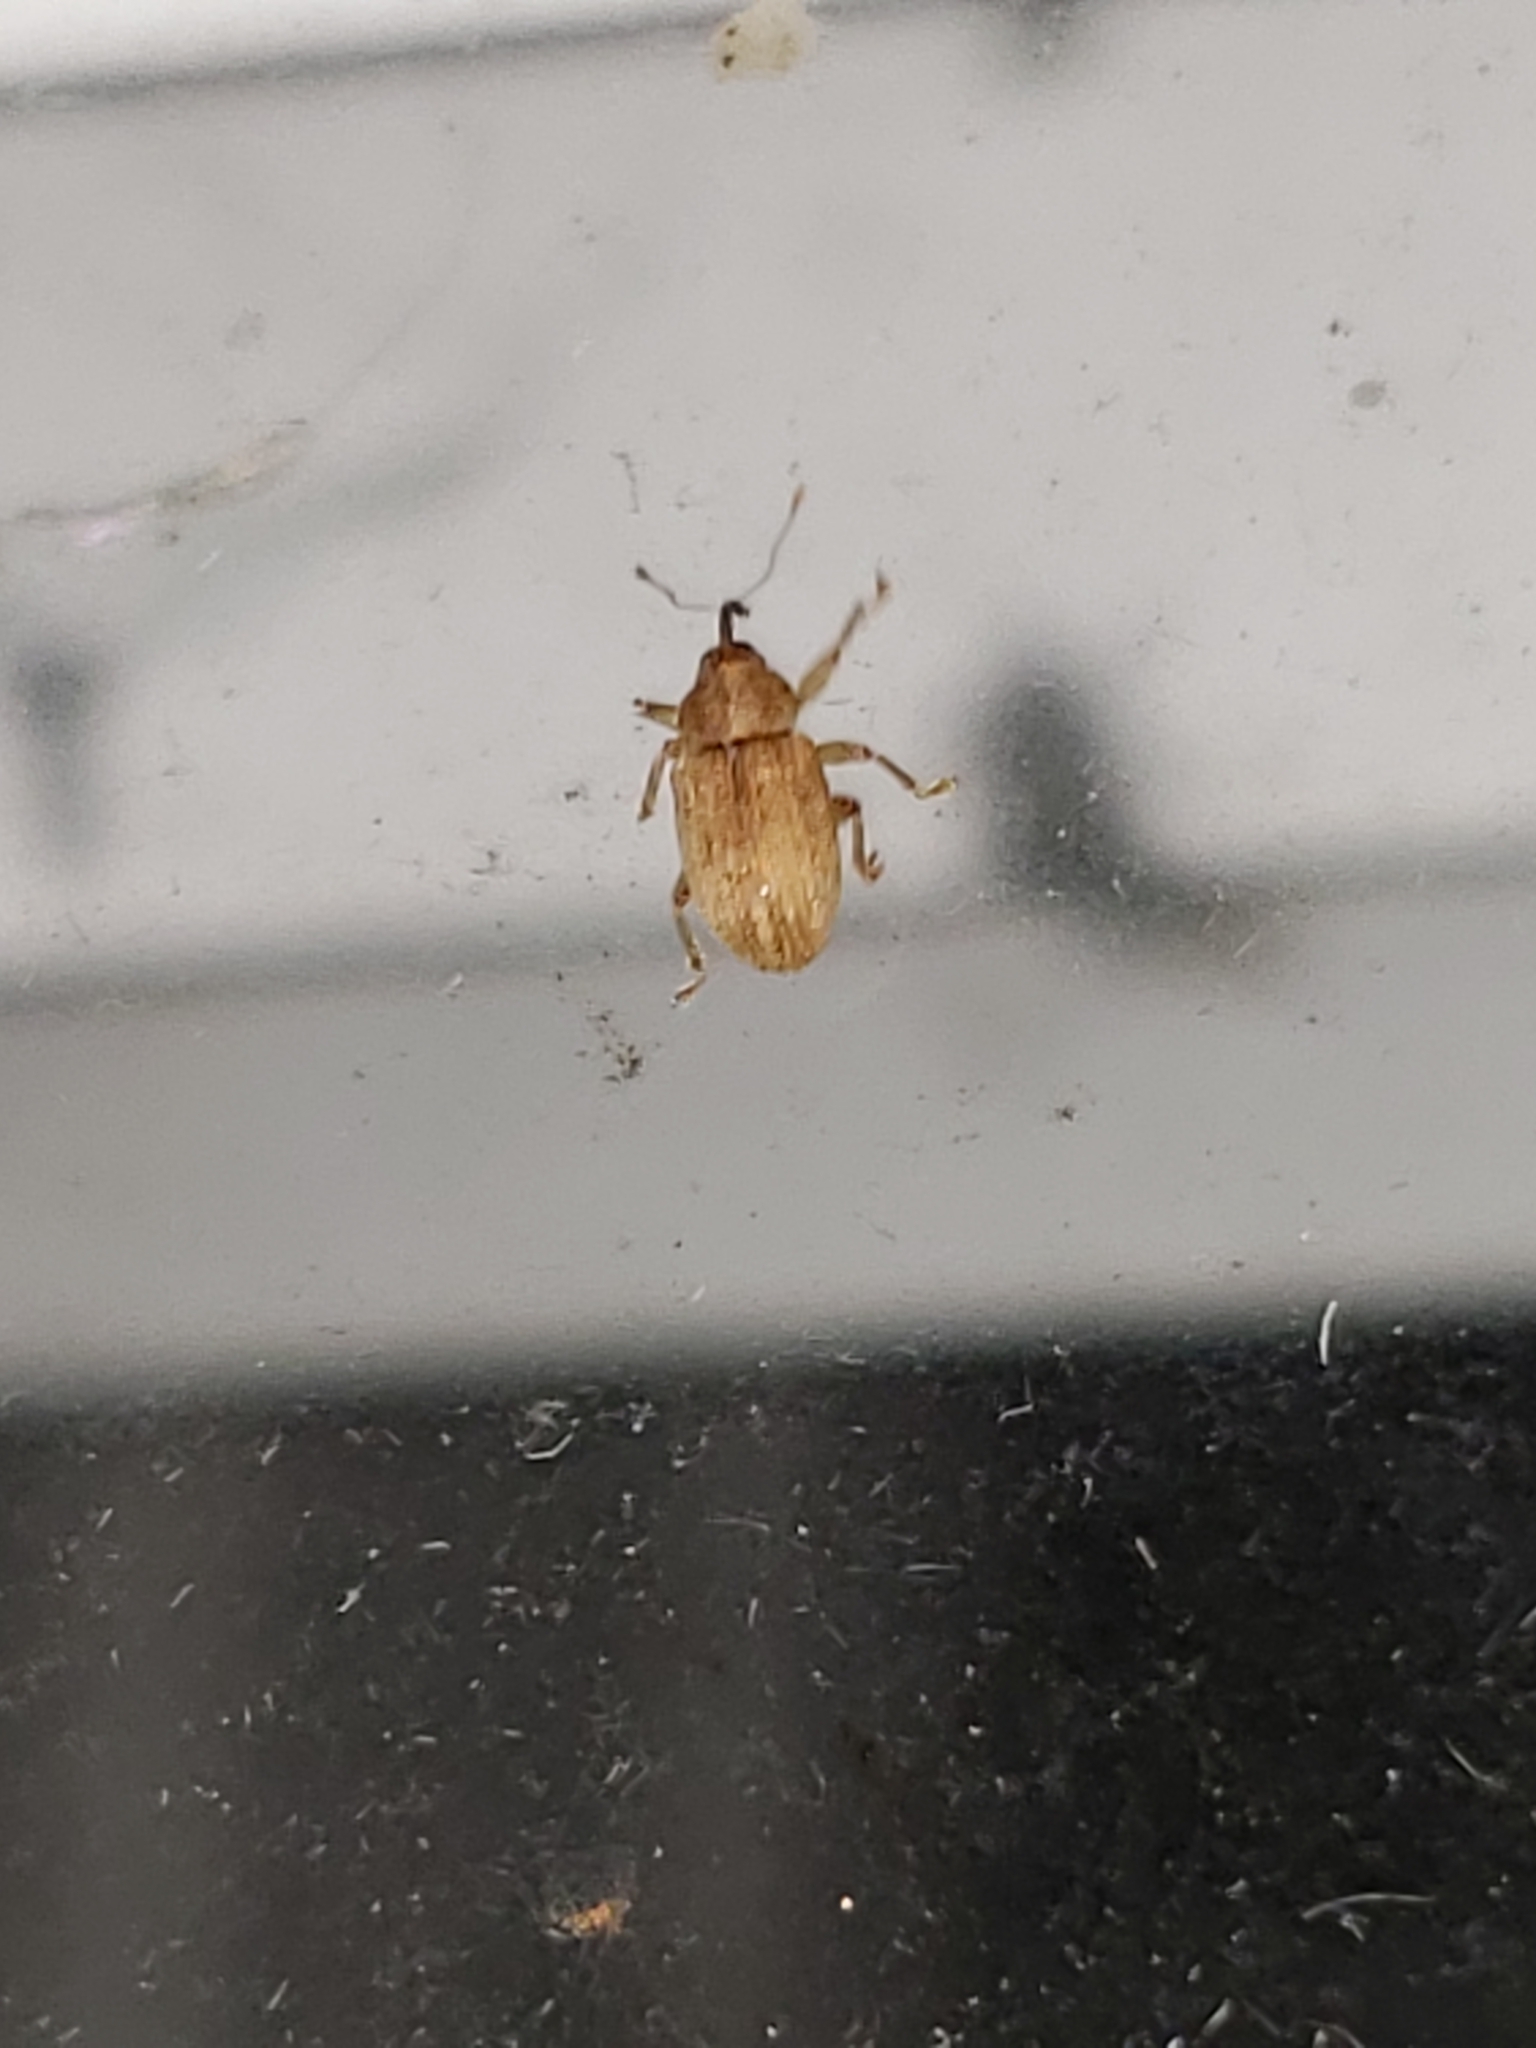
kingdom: Animalia
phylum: Arthropoda
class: Insecta
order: Coleoptera
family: Curculionidae
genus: Lignyodes
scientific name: Lignyodes helvolus
